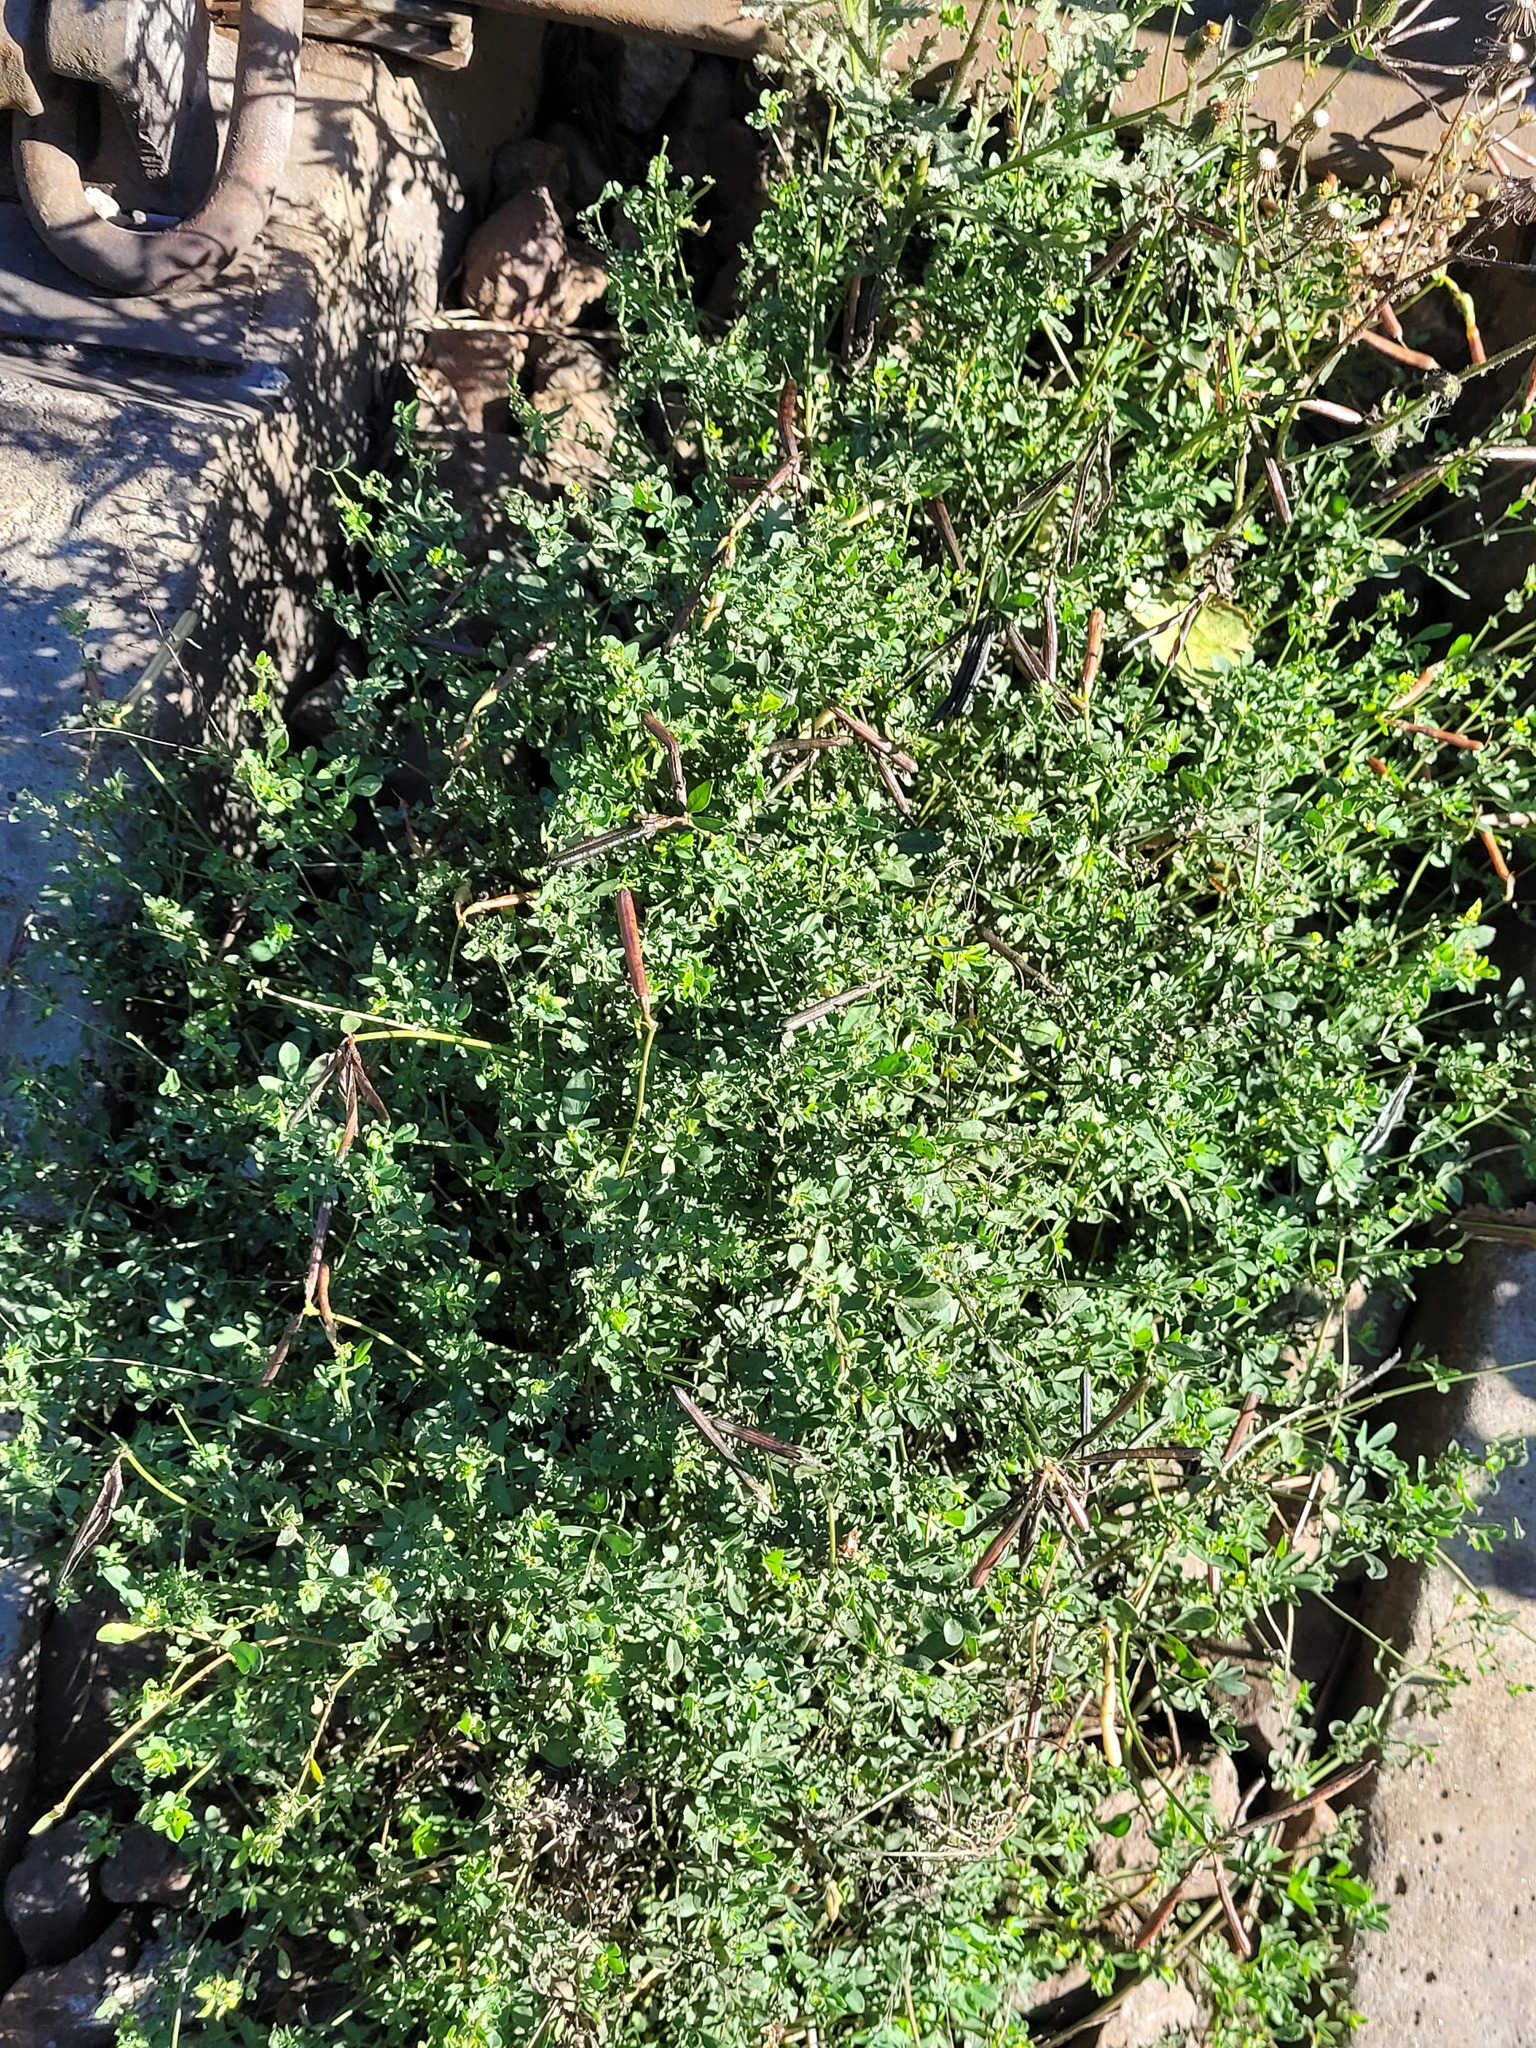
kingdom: Plantae
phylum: Tracheophyta
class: Magnoliopsida
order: Fabales
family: Fabaceae
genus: Lotus
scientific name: Lotus corniculatus
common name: Common bird's-foot-trefoil
